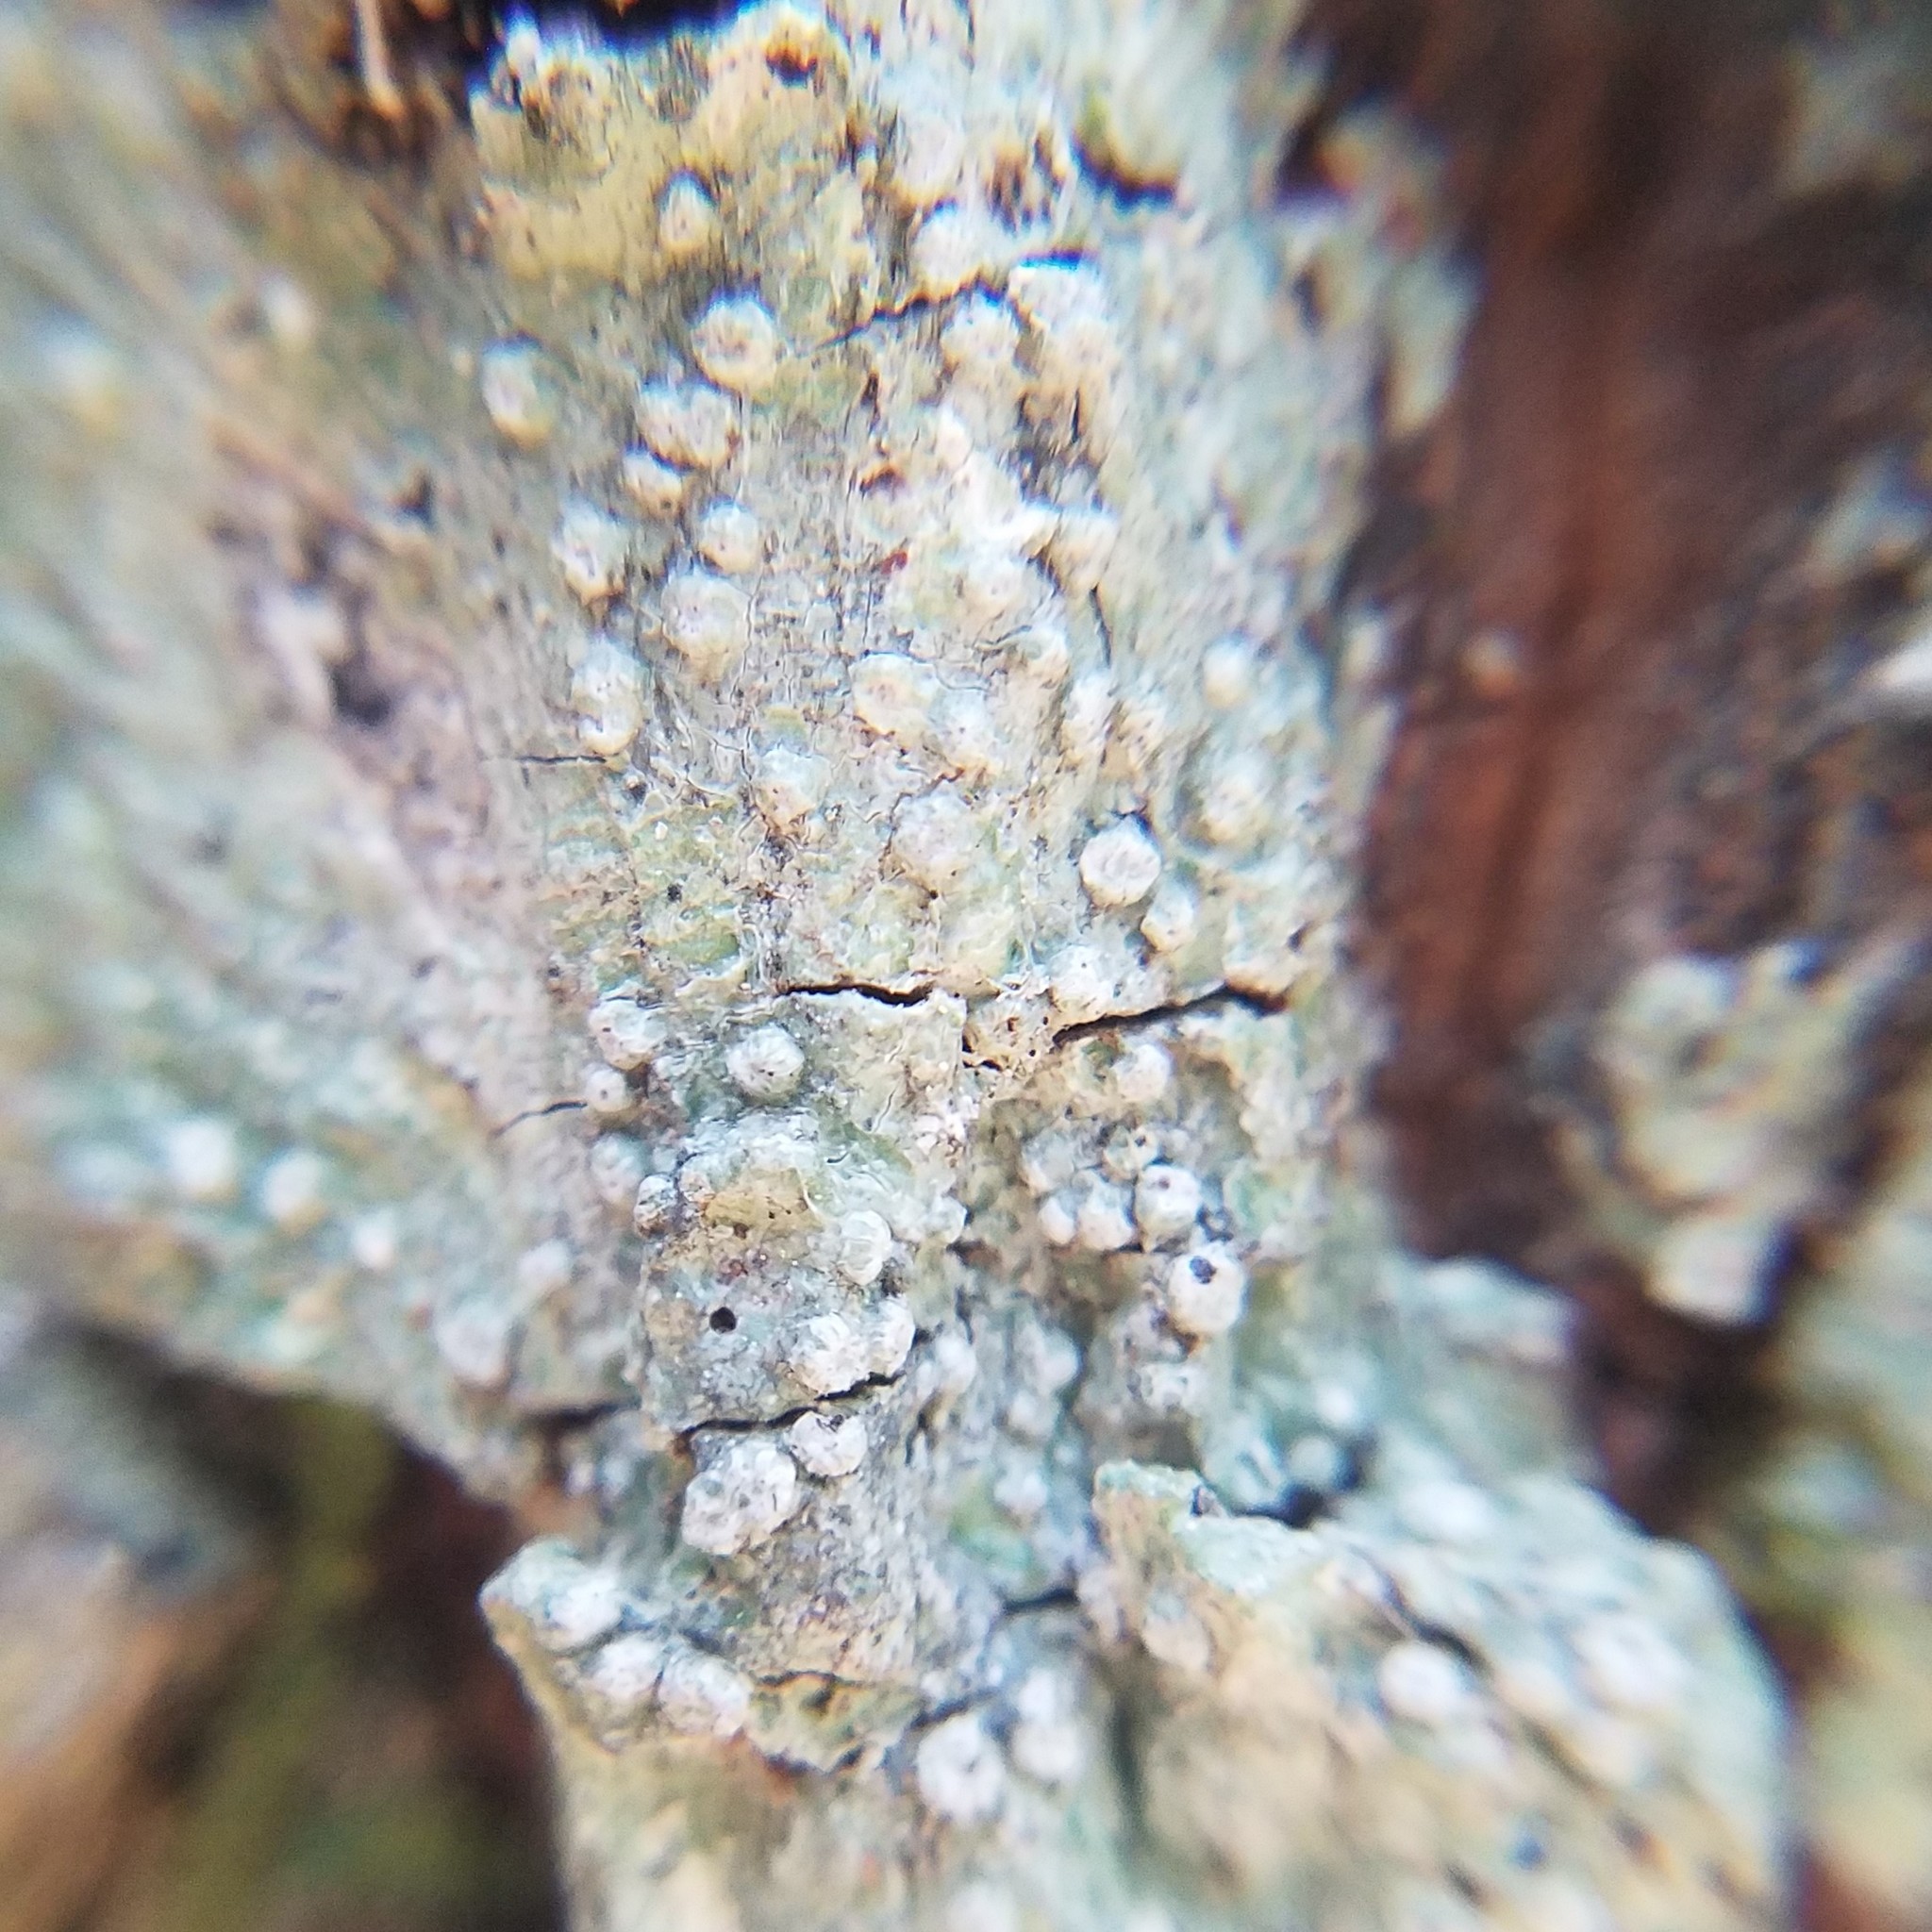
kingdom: Fungi
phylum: Ascomycota
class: Lecanoromycetes
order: Pertusariales
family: Pertusariaceae
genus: Pertusaria
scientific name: Pertusaria sinusmexicani
